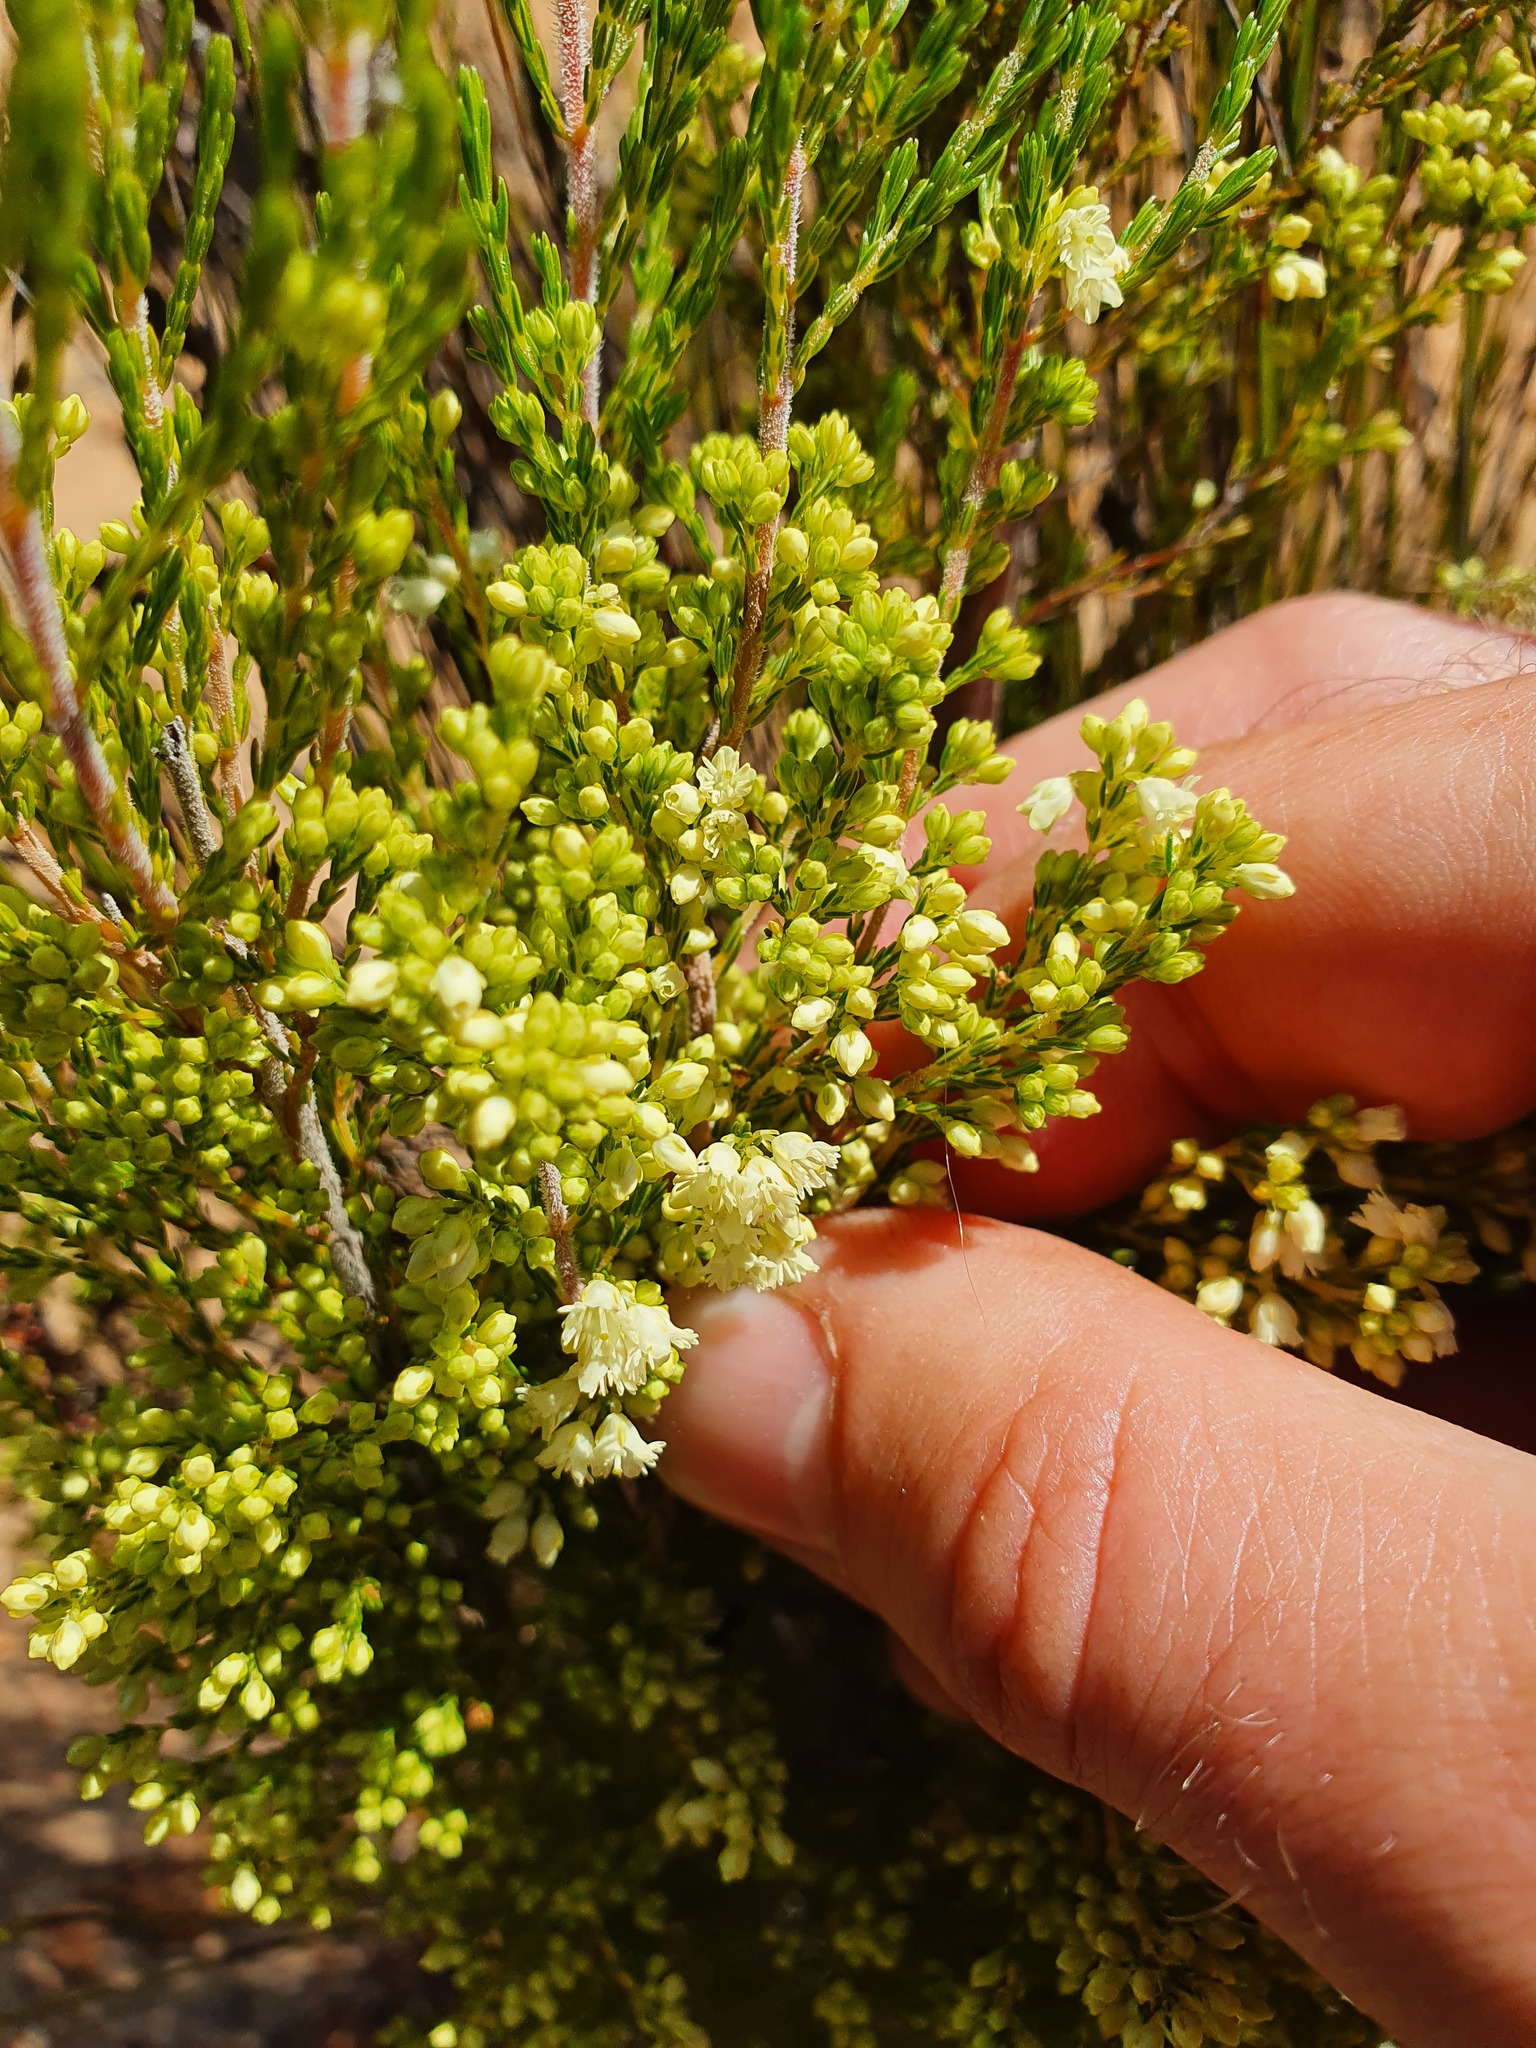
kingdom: Plantae
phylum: Tracheophyta
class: Magnoliopsida
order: Ericales
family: Ericaceae
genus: Erica
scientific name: Erica leucanthera
